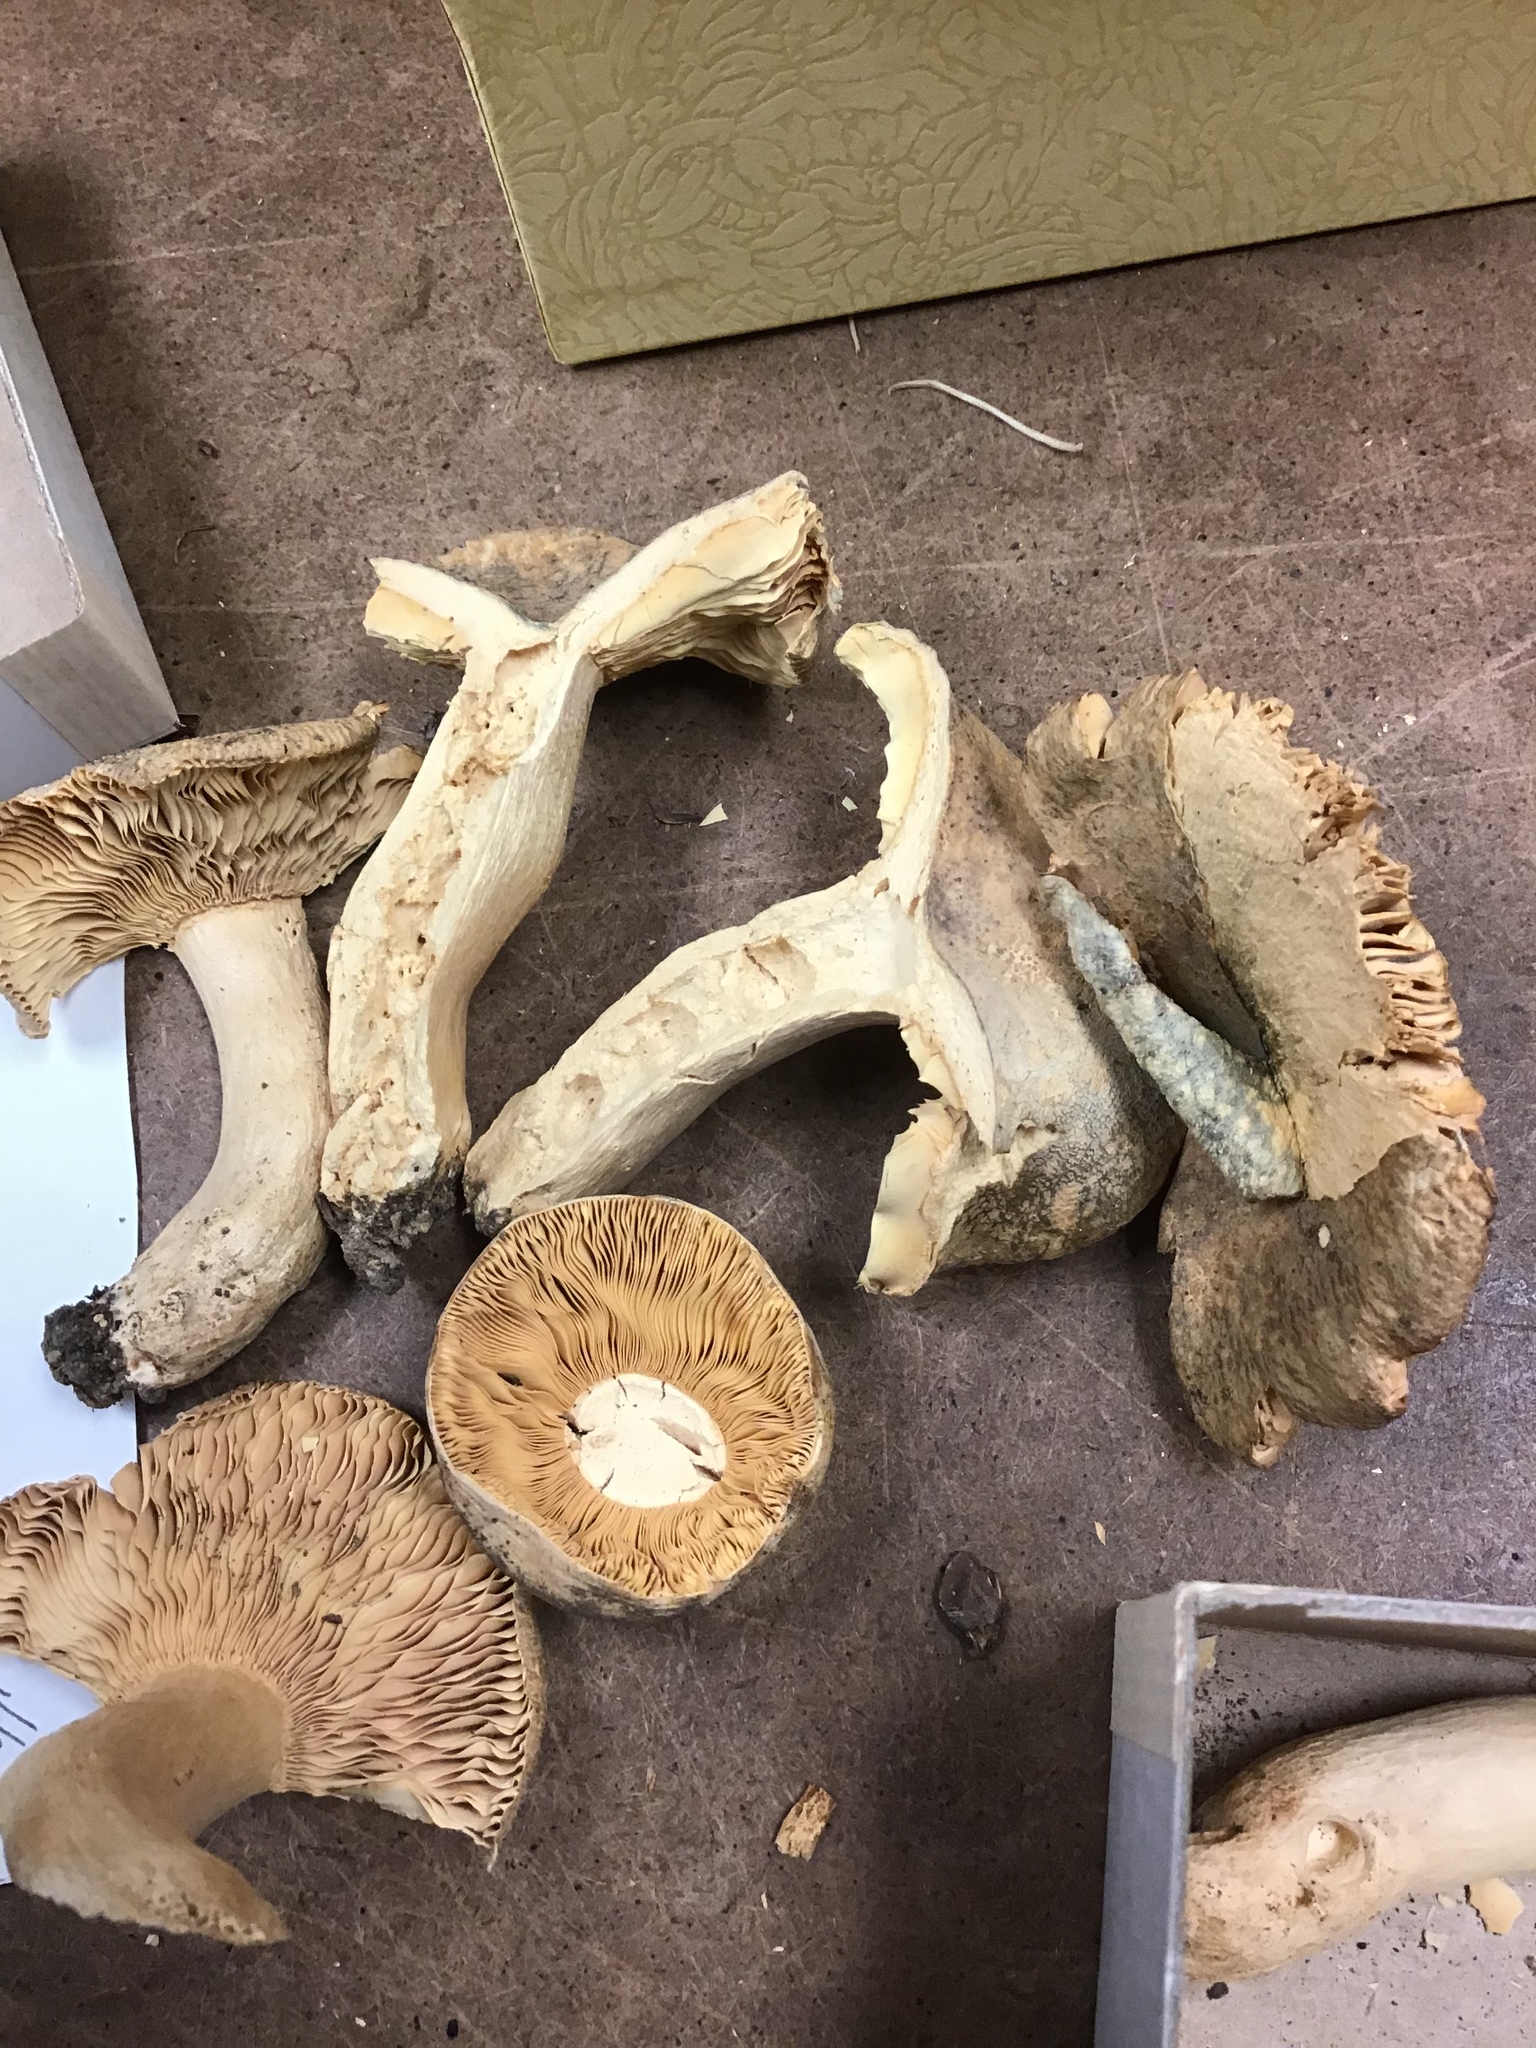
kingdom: Fungi
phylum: Basidiomycota
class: Agaricomycetes
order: Russulales
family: Russulaceae
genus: Russula
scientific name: Russula crustosa
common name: Green quilt russula
